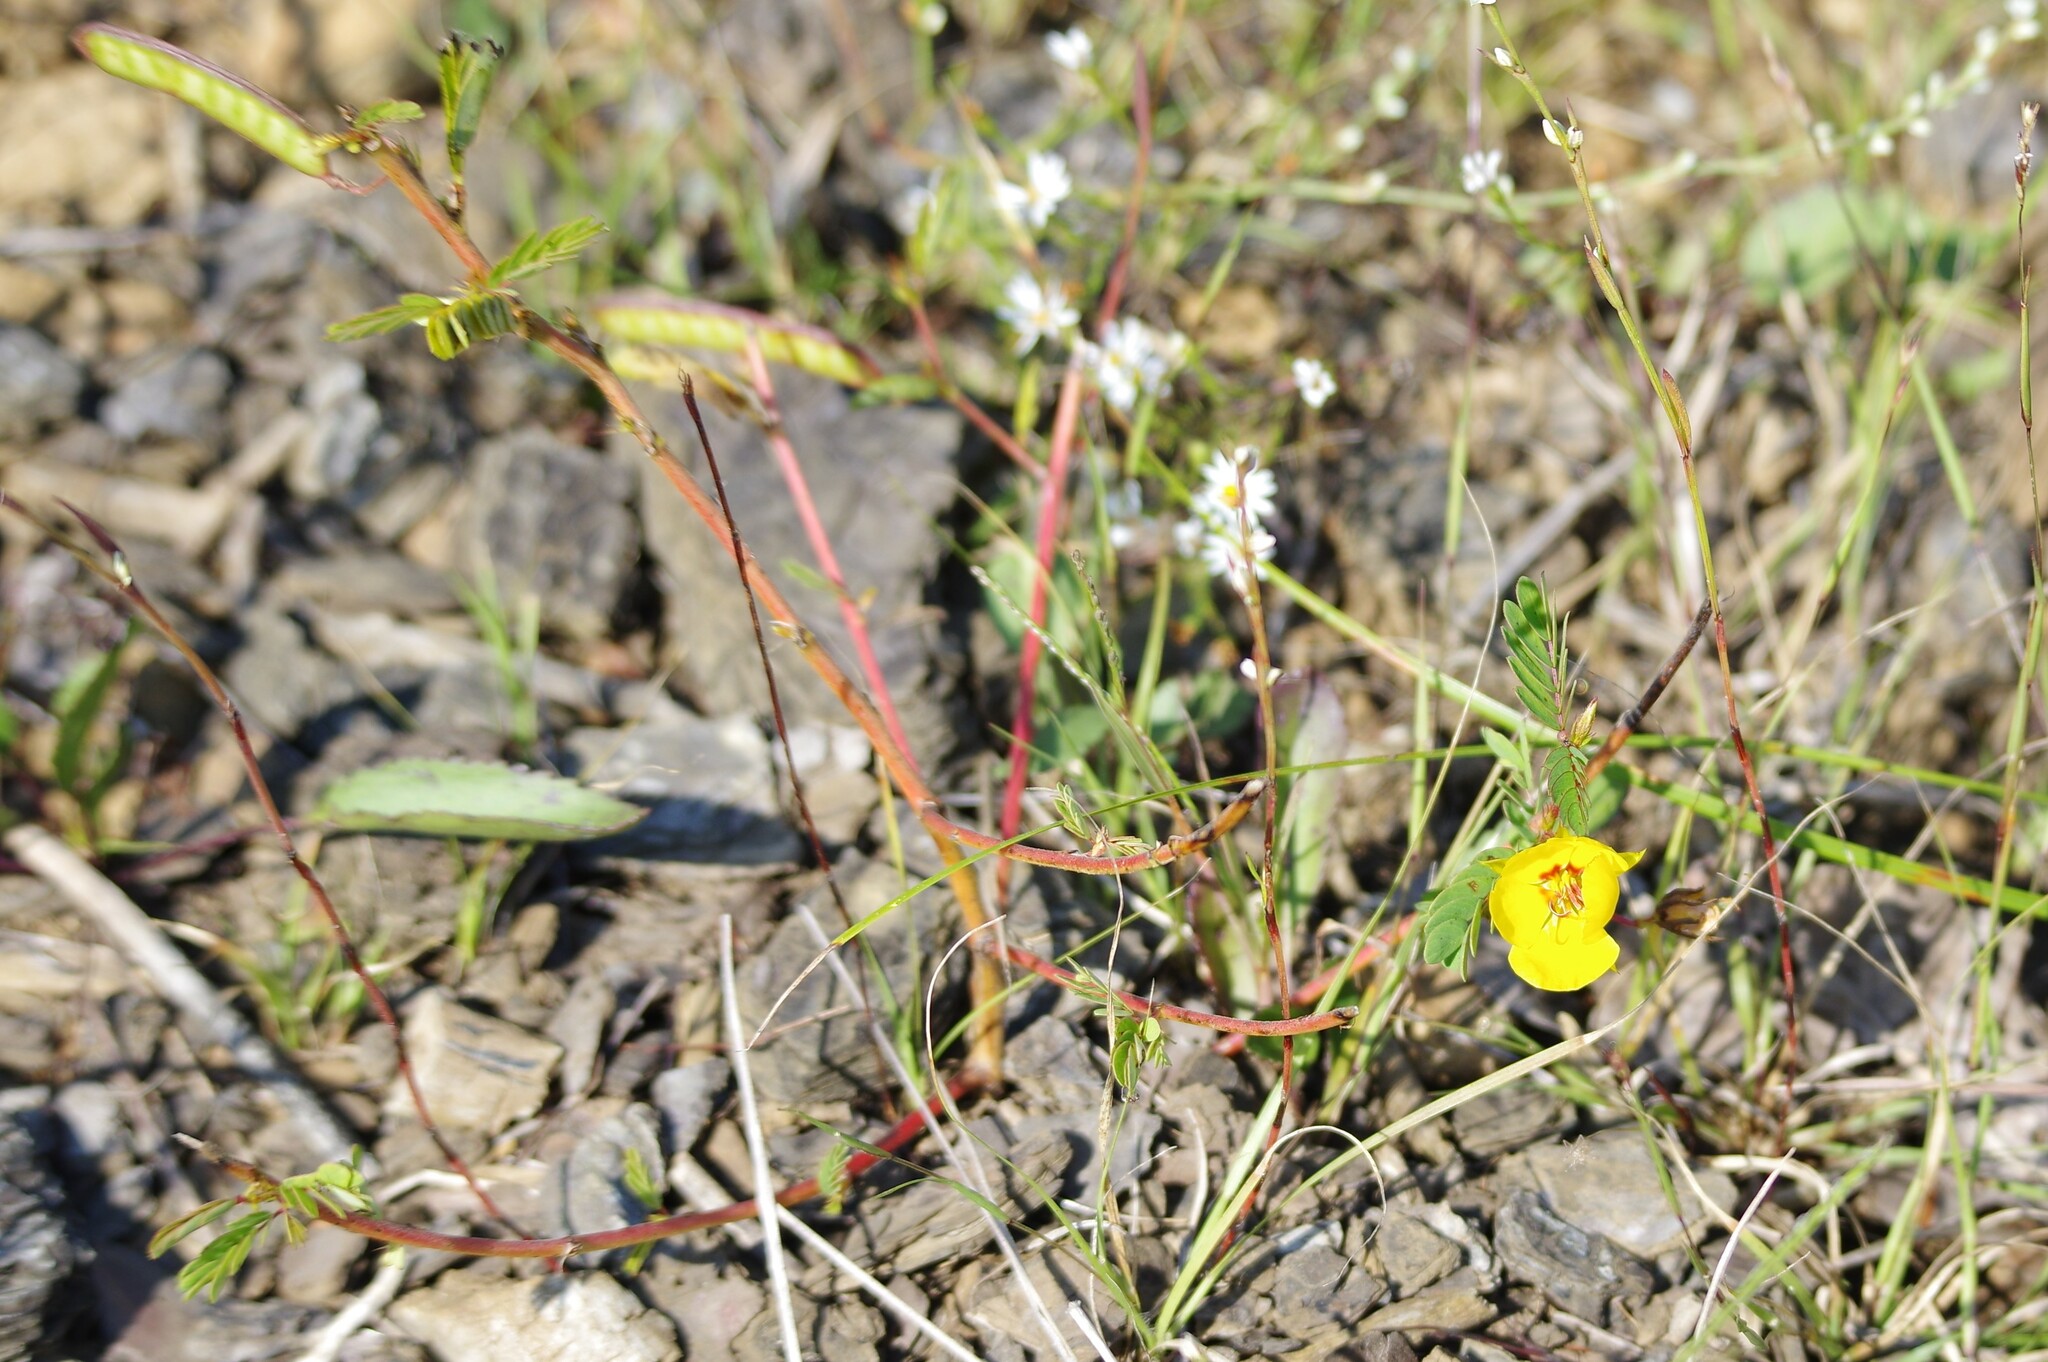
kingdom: Plantae
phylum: Tracheophyta
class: Magnoliopsida
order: Fabales
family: Fabaceae
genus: Chamaecrista
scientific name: Chamaecrista fasciculata
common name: Golden cassia
